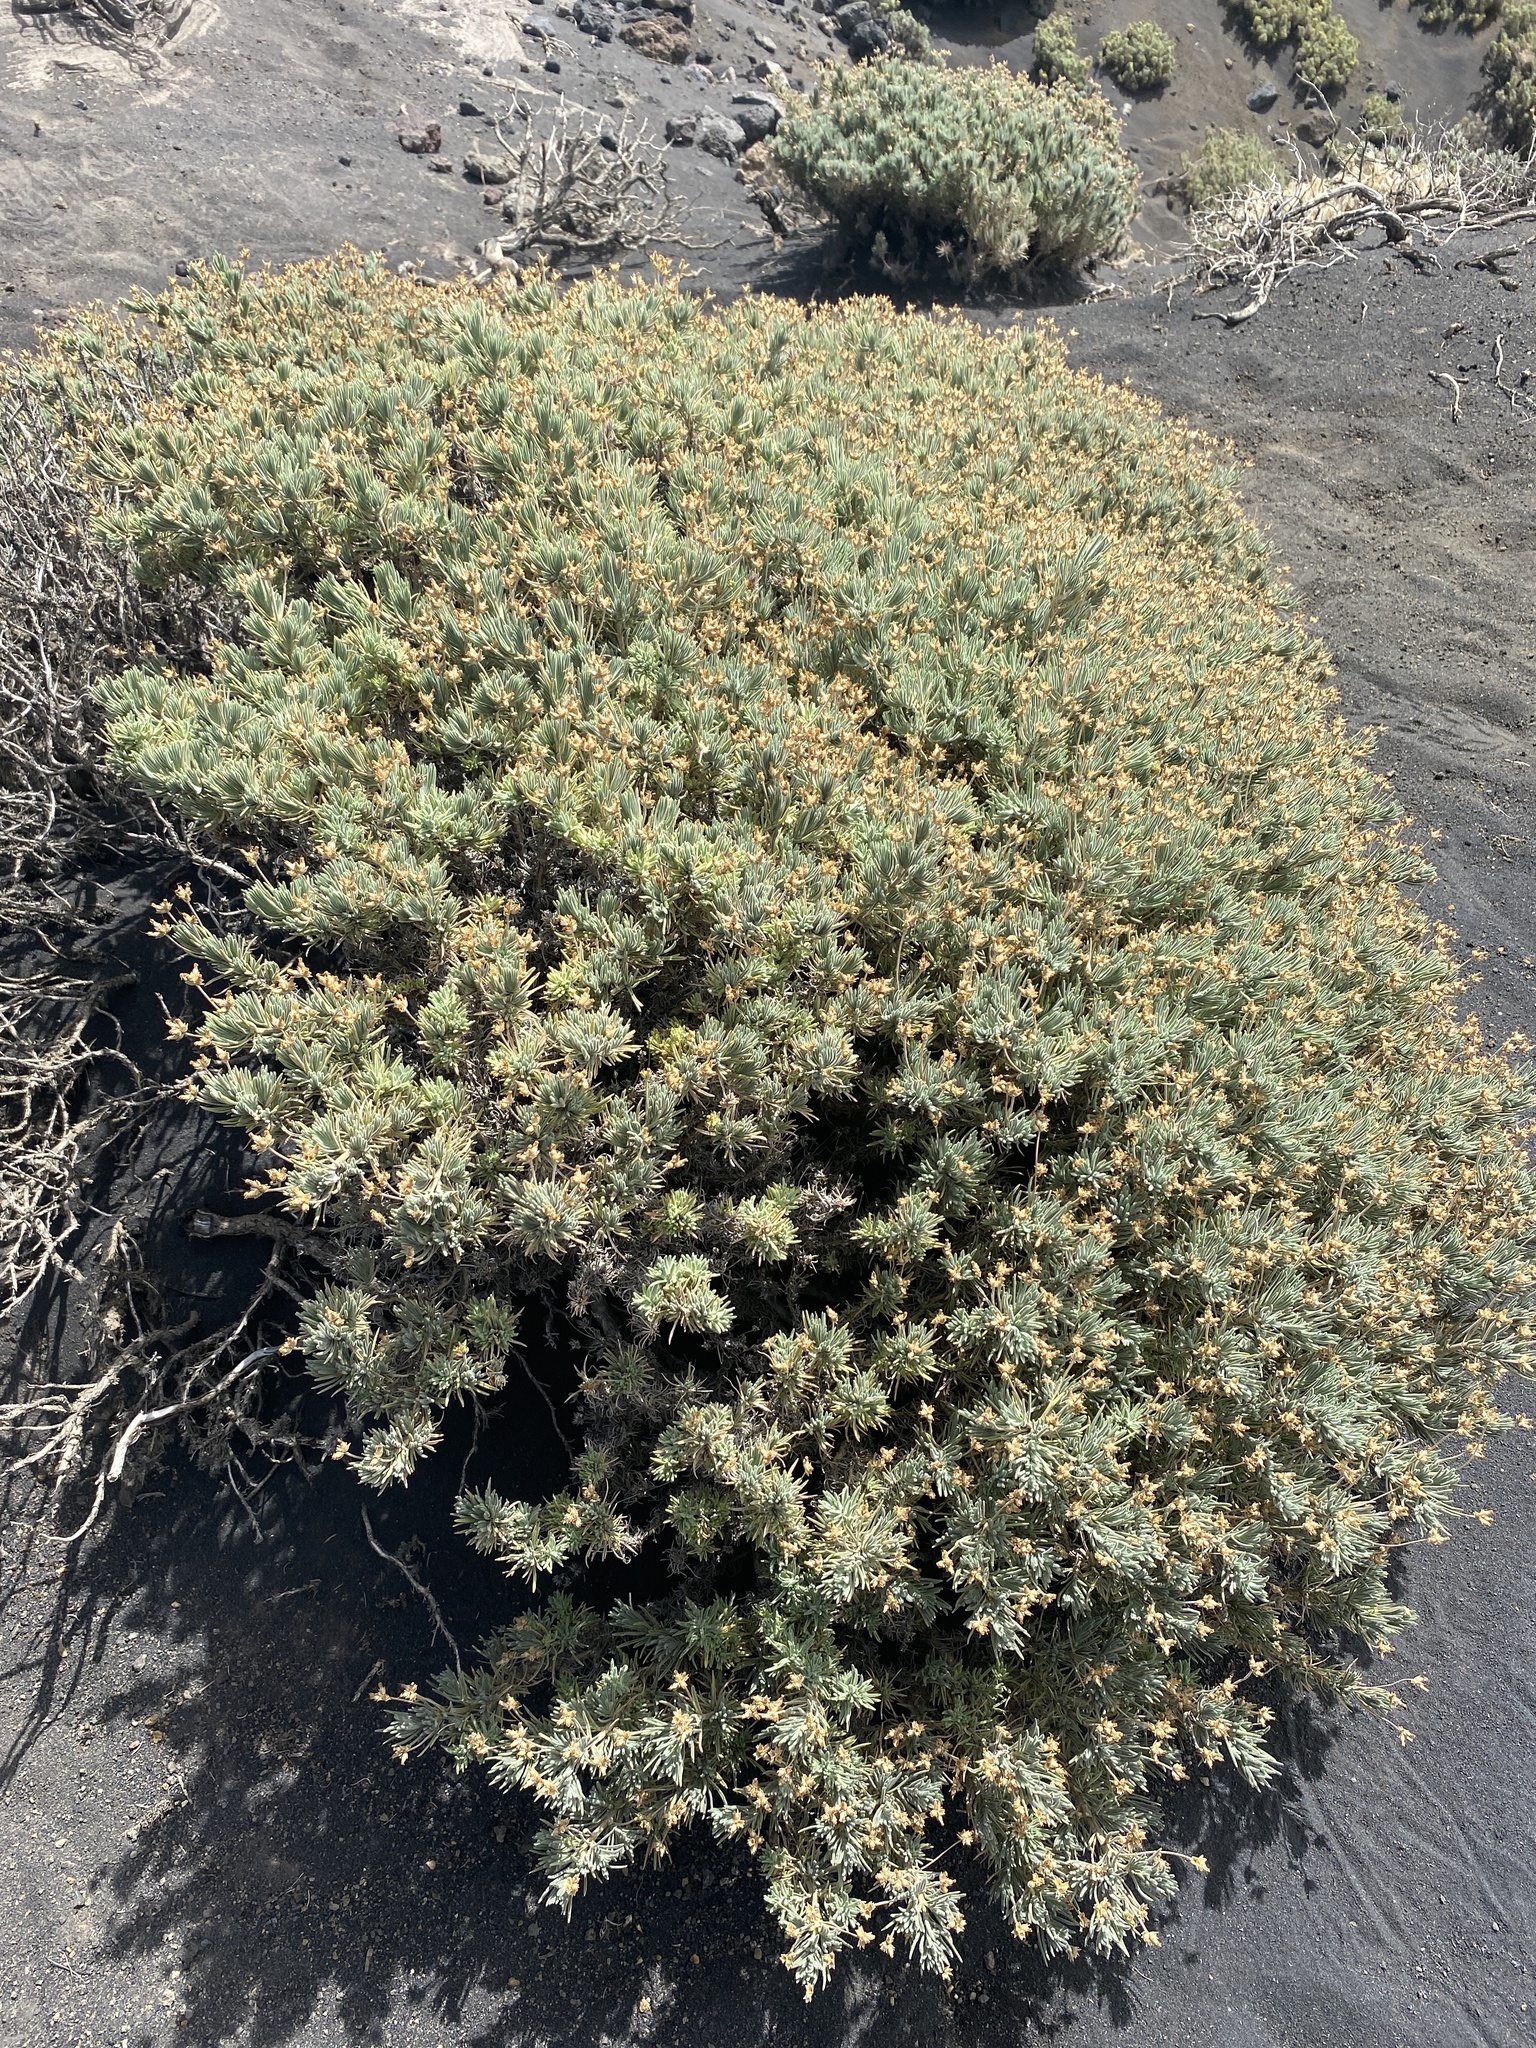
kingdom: Plantae
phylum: Tracheophyta
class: Magnoliopsida
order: Lamiales
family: Plantaginaceae
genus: Plantago
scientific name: Plantago webbii
